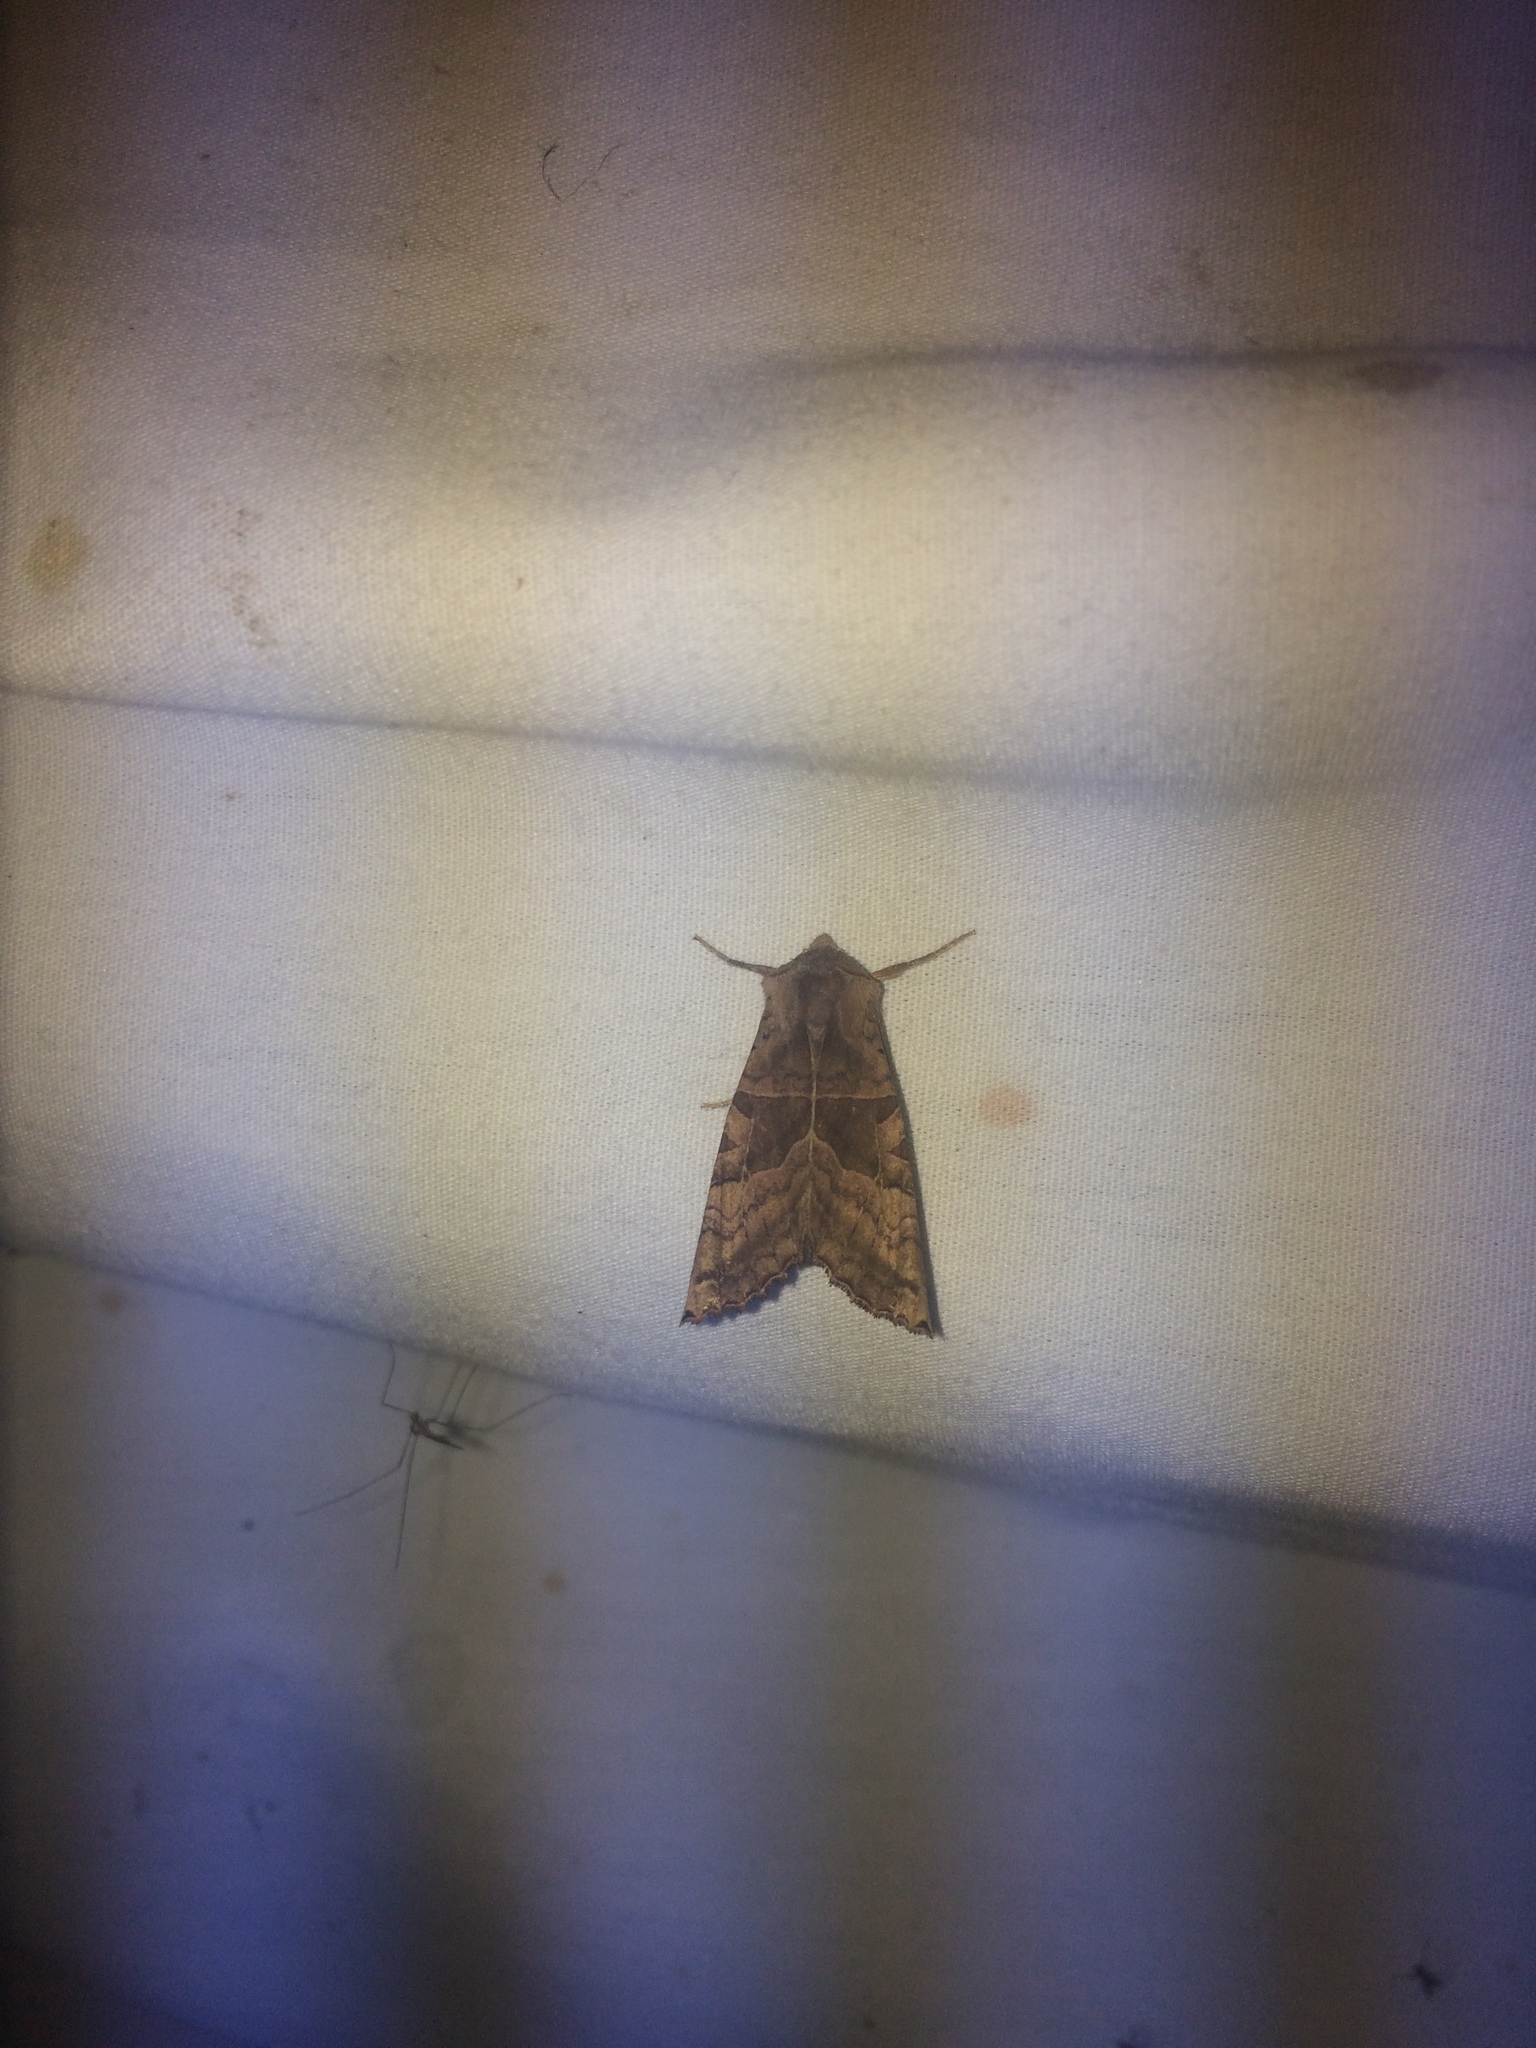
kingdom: Animalia
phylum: Arthropoda
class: Insecta
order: Lepidoptera
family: Noctuidae
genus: Phlogophora
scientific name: Phlogophora periculosa
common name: Brown angle shades
